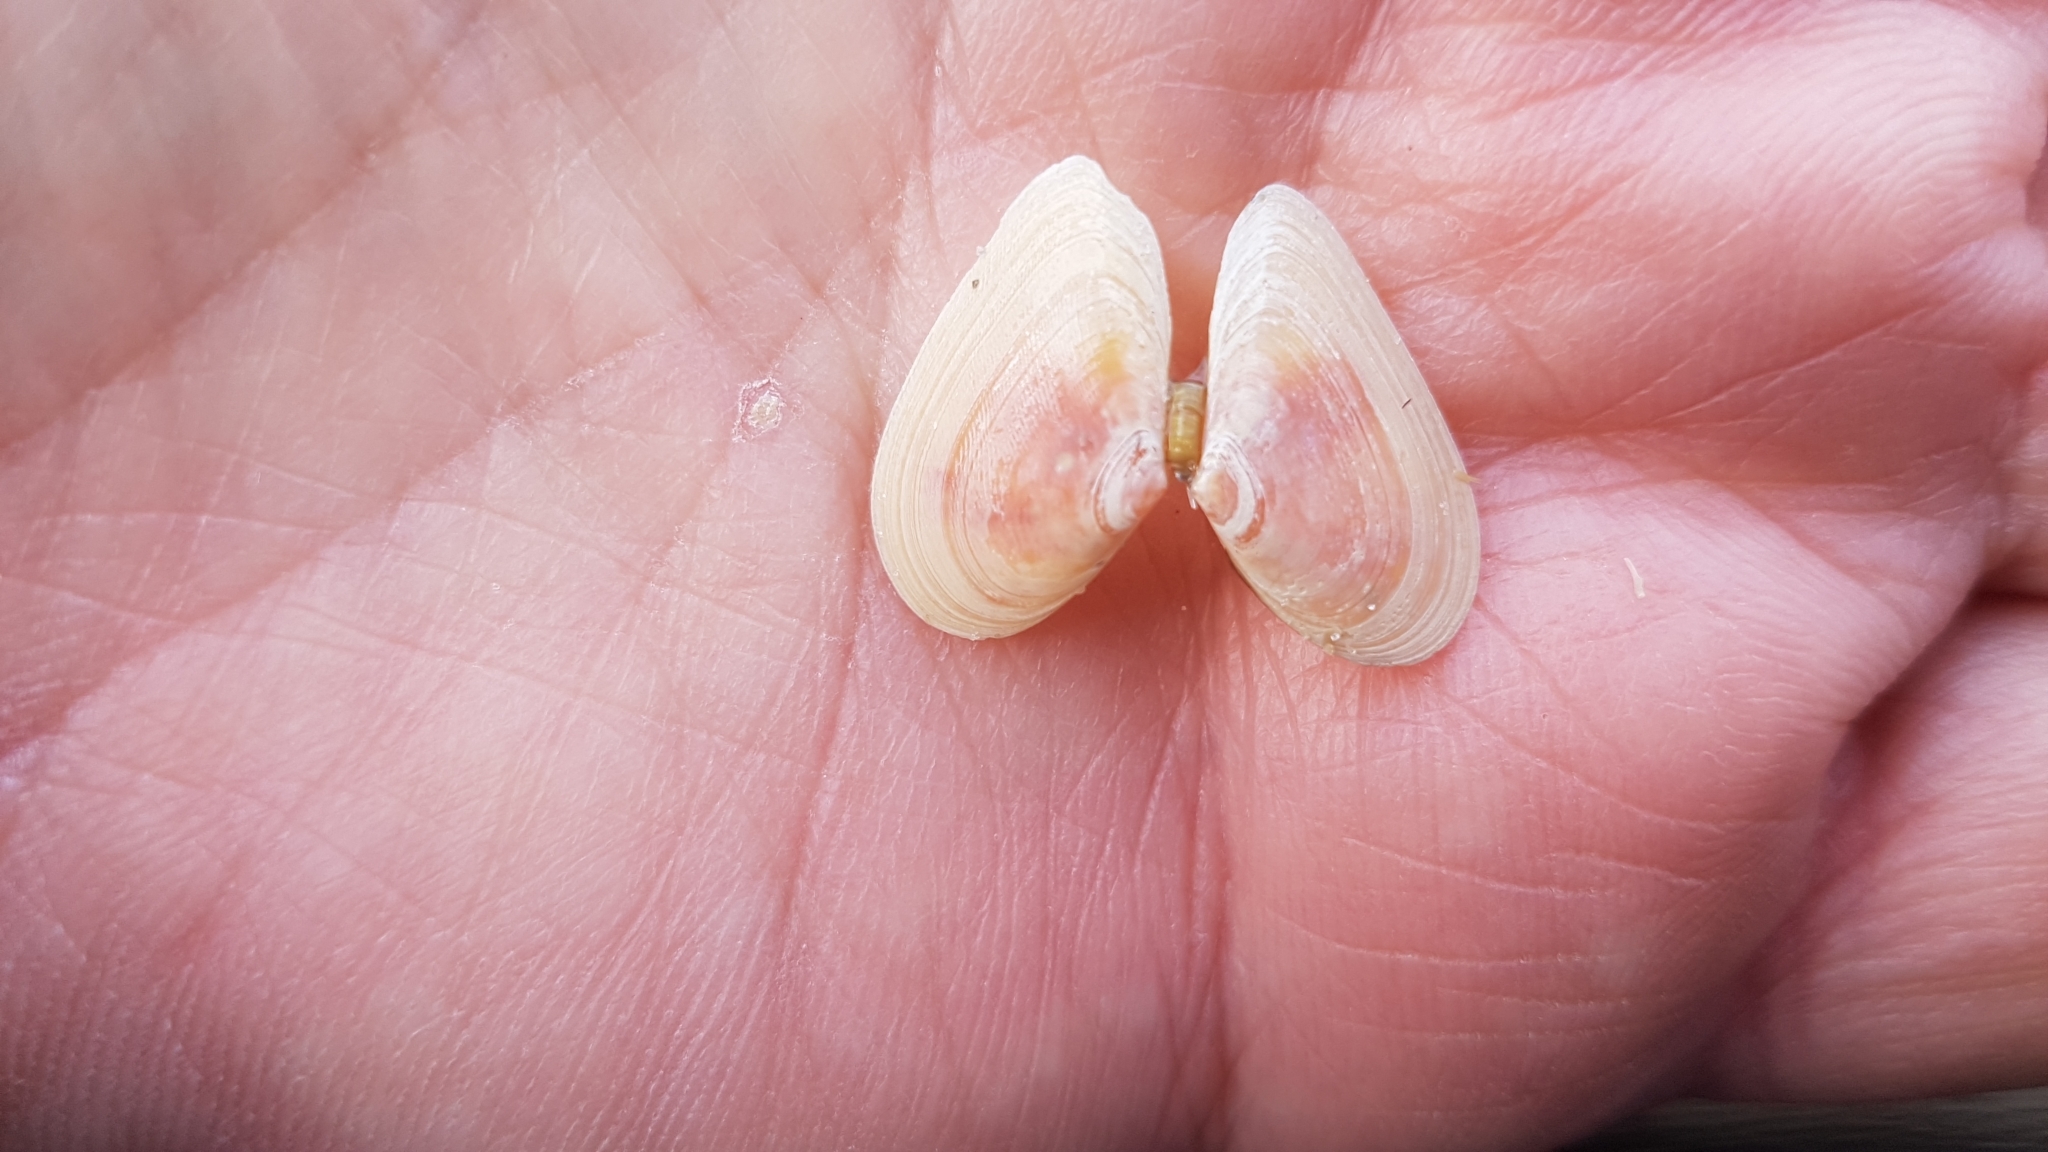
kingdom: Animalia
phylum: Mollusca
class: Bivalvia
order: Cardiida
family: Tellinidae
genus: Fabulina
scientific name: Fabulina fabula
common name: Bean-like tellin
